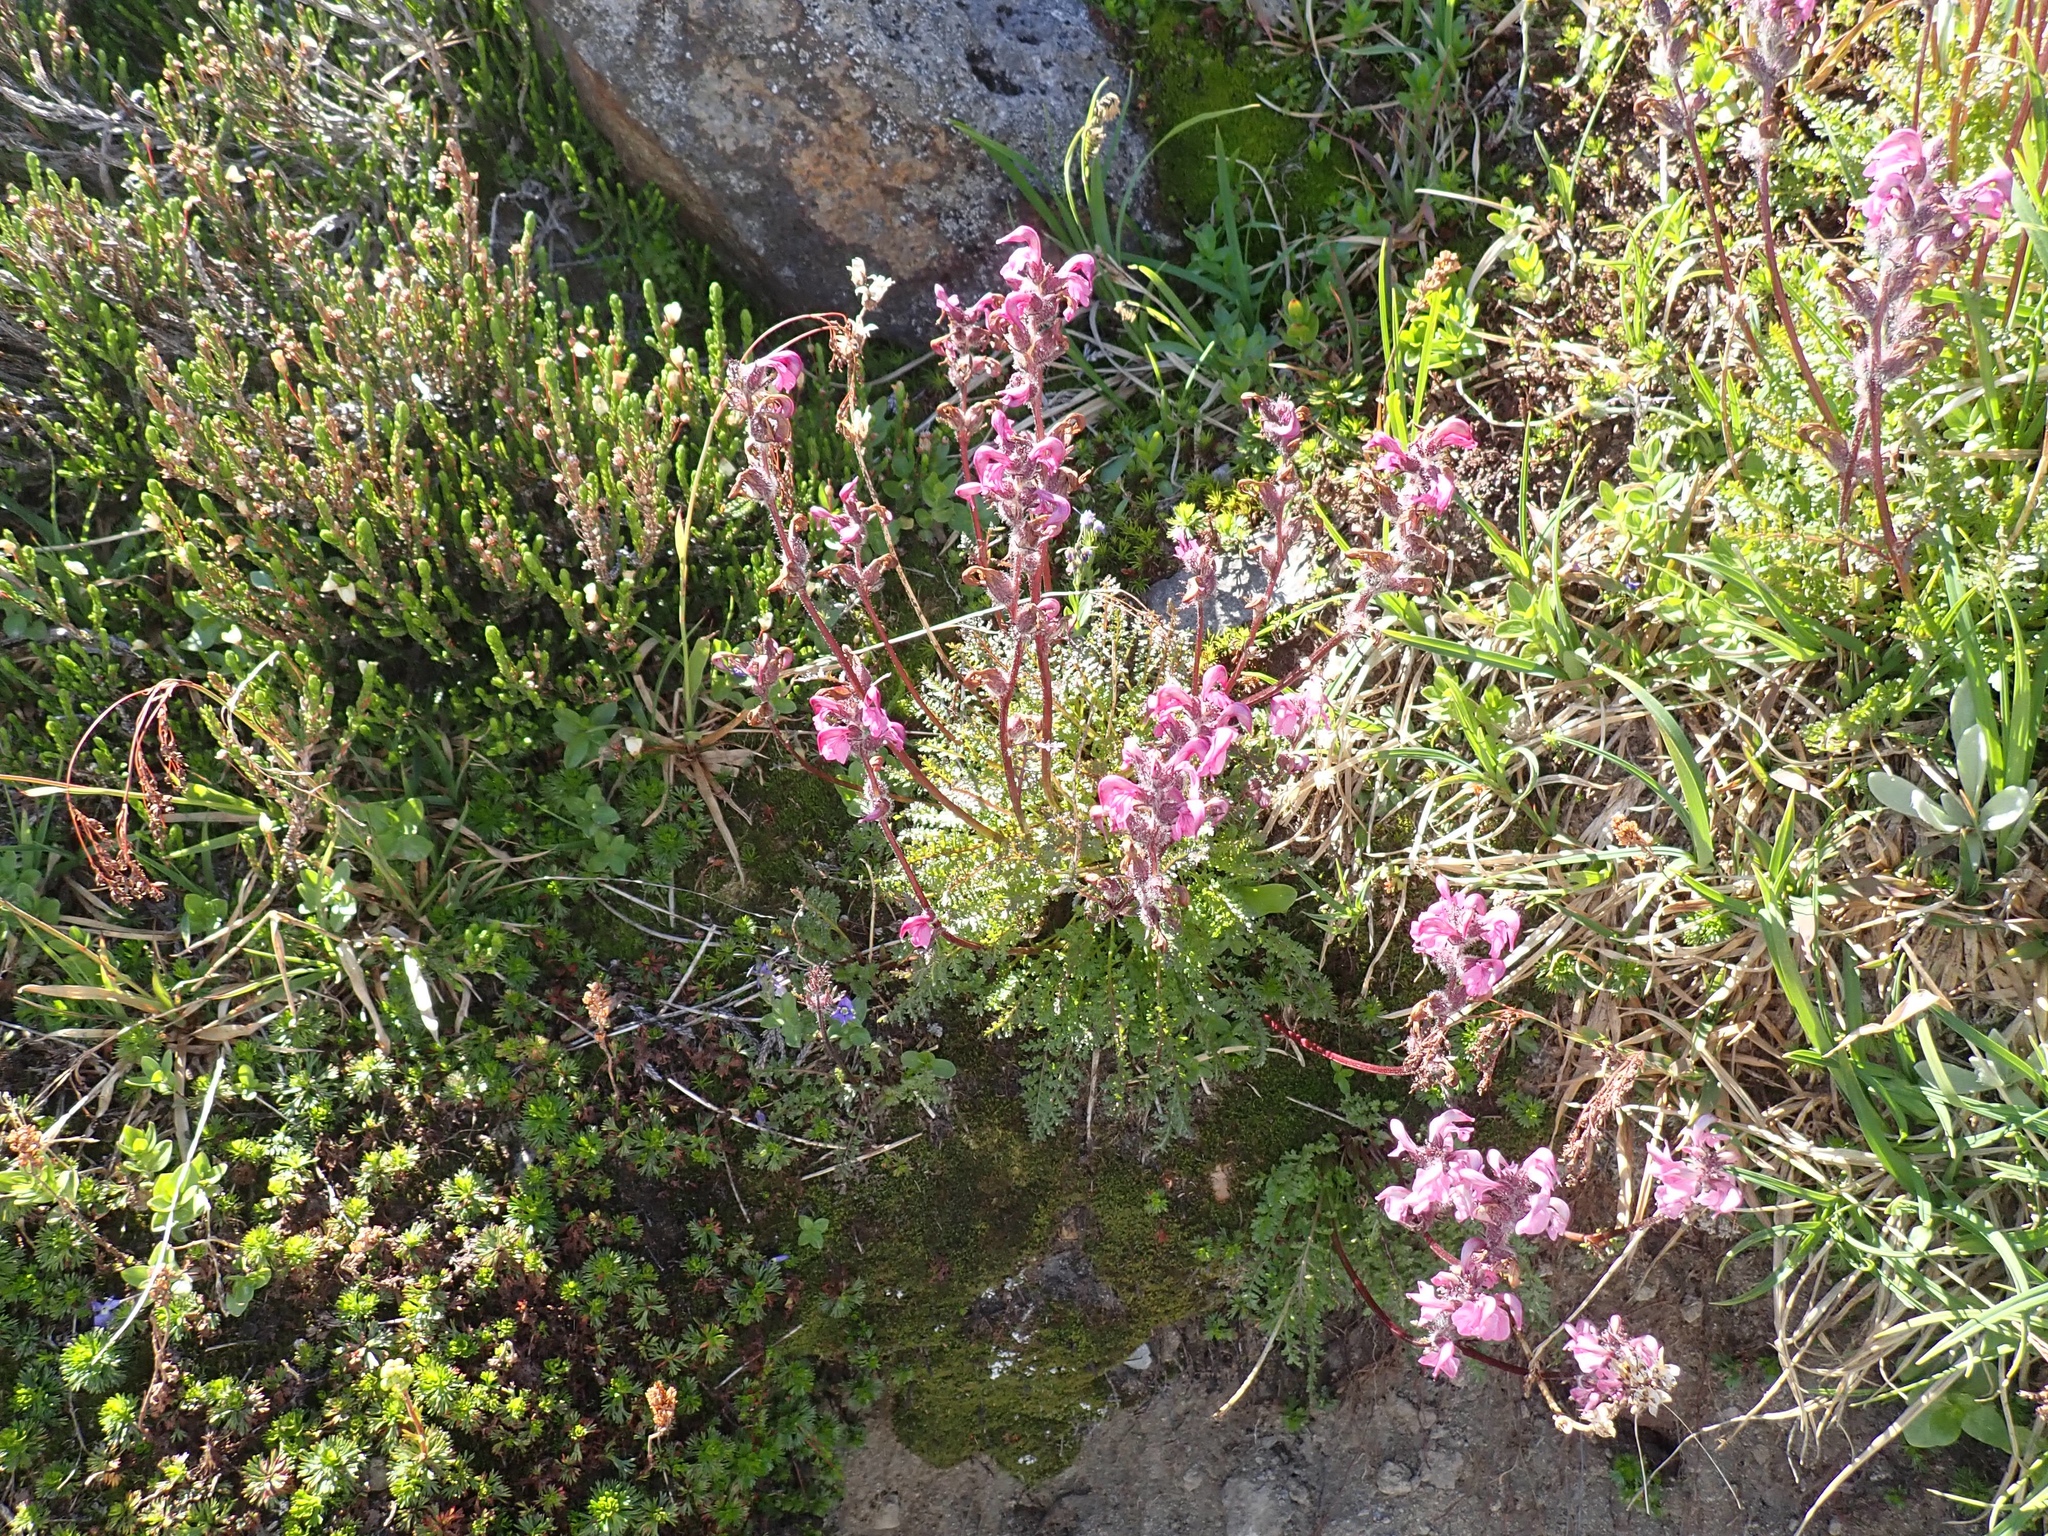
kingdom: Plantae
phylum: Tracheophyta
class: Magnoliopsida
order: Lamiales
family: Orobanchaceae
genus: Pedicularis
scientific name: Pedicularis ornithorhynchos
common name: Bird's-beak lousewort
